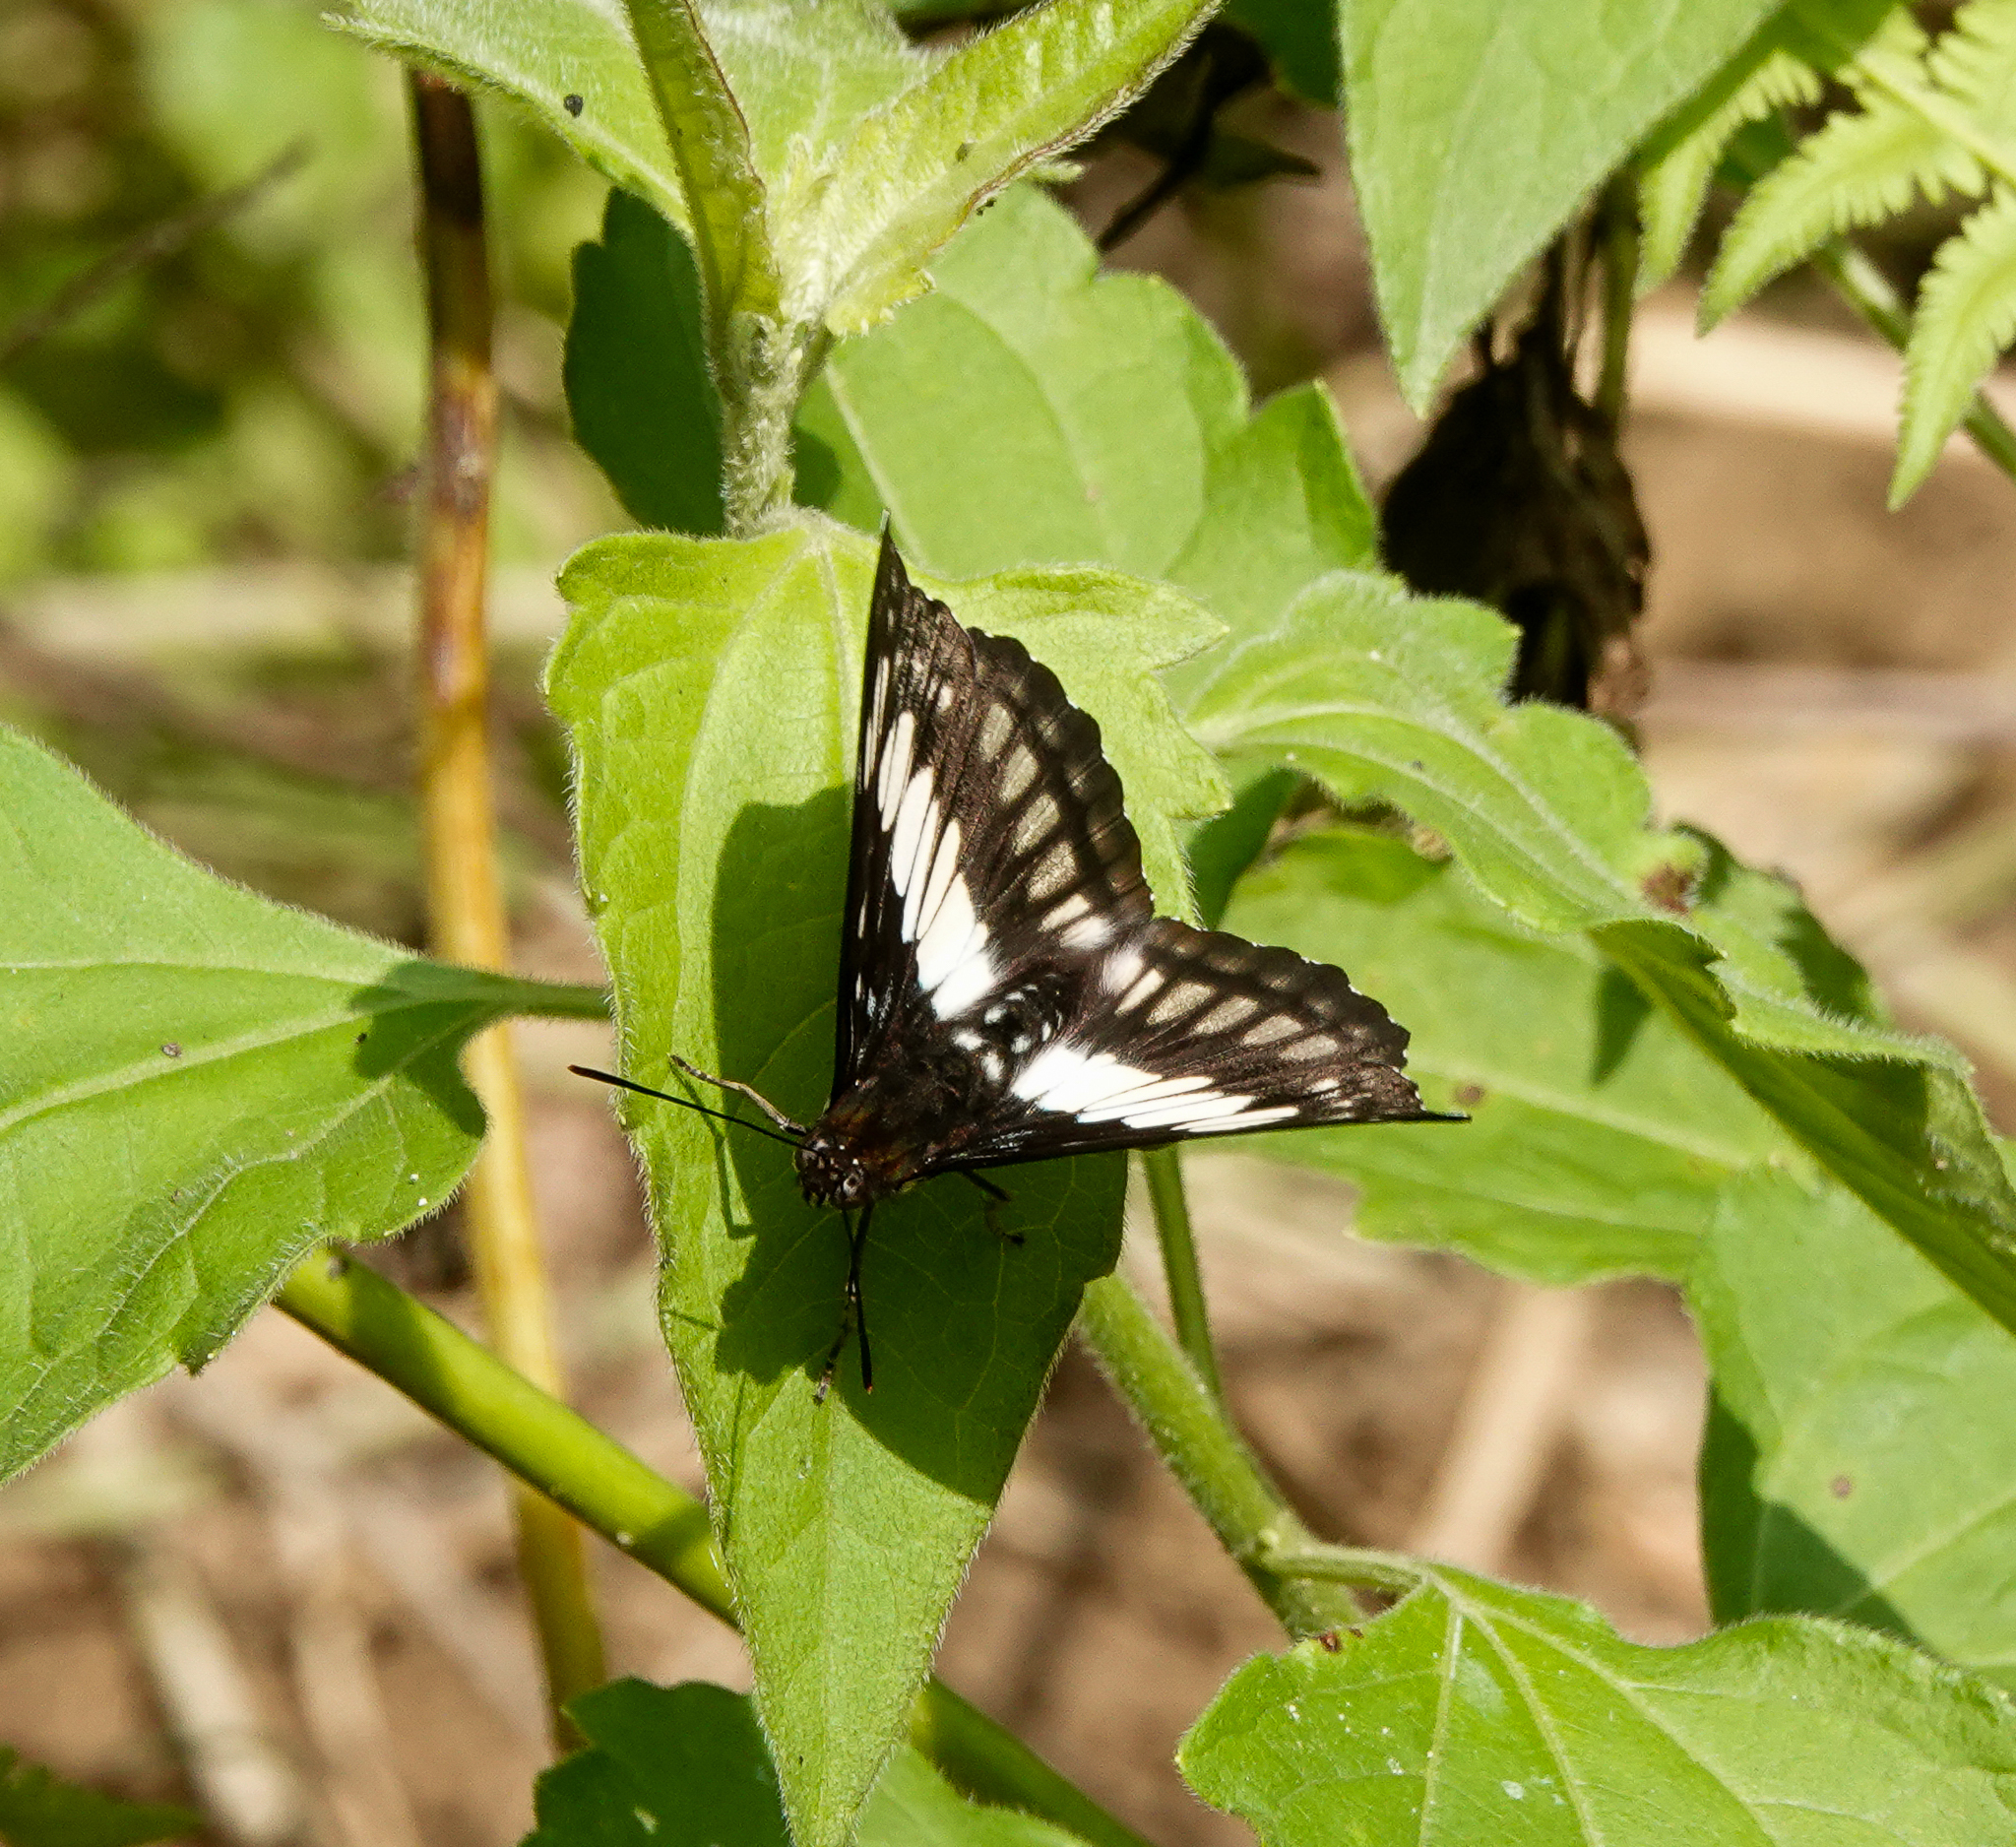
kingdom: Animalia
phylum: Arthropoda
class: Insecta
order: Lepidoptera
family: Nymphalidae
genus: Parathyma
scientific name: Parathyma ranga
